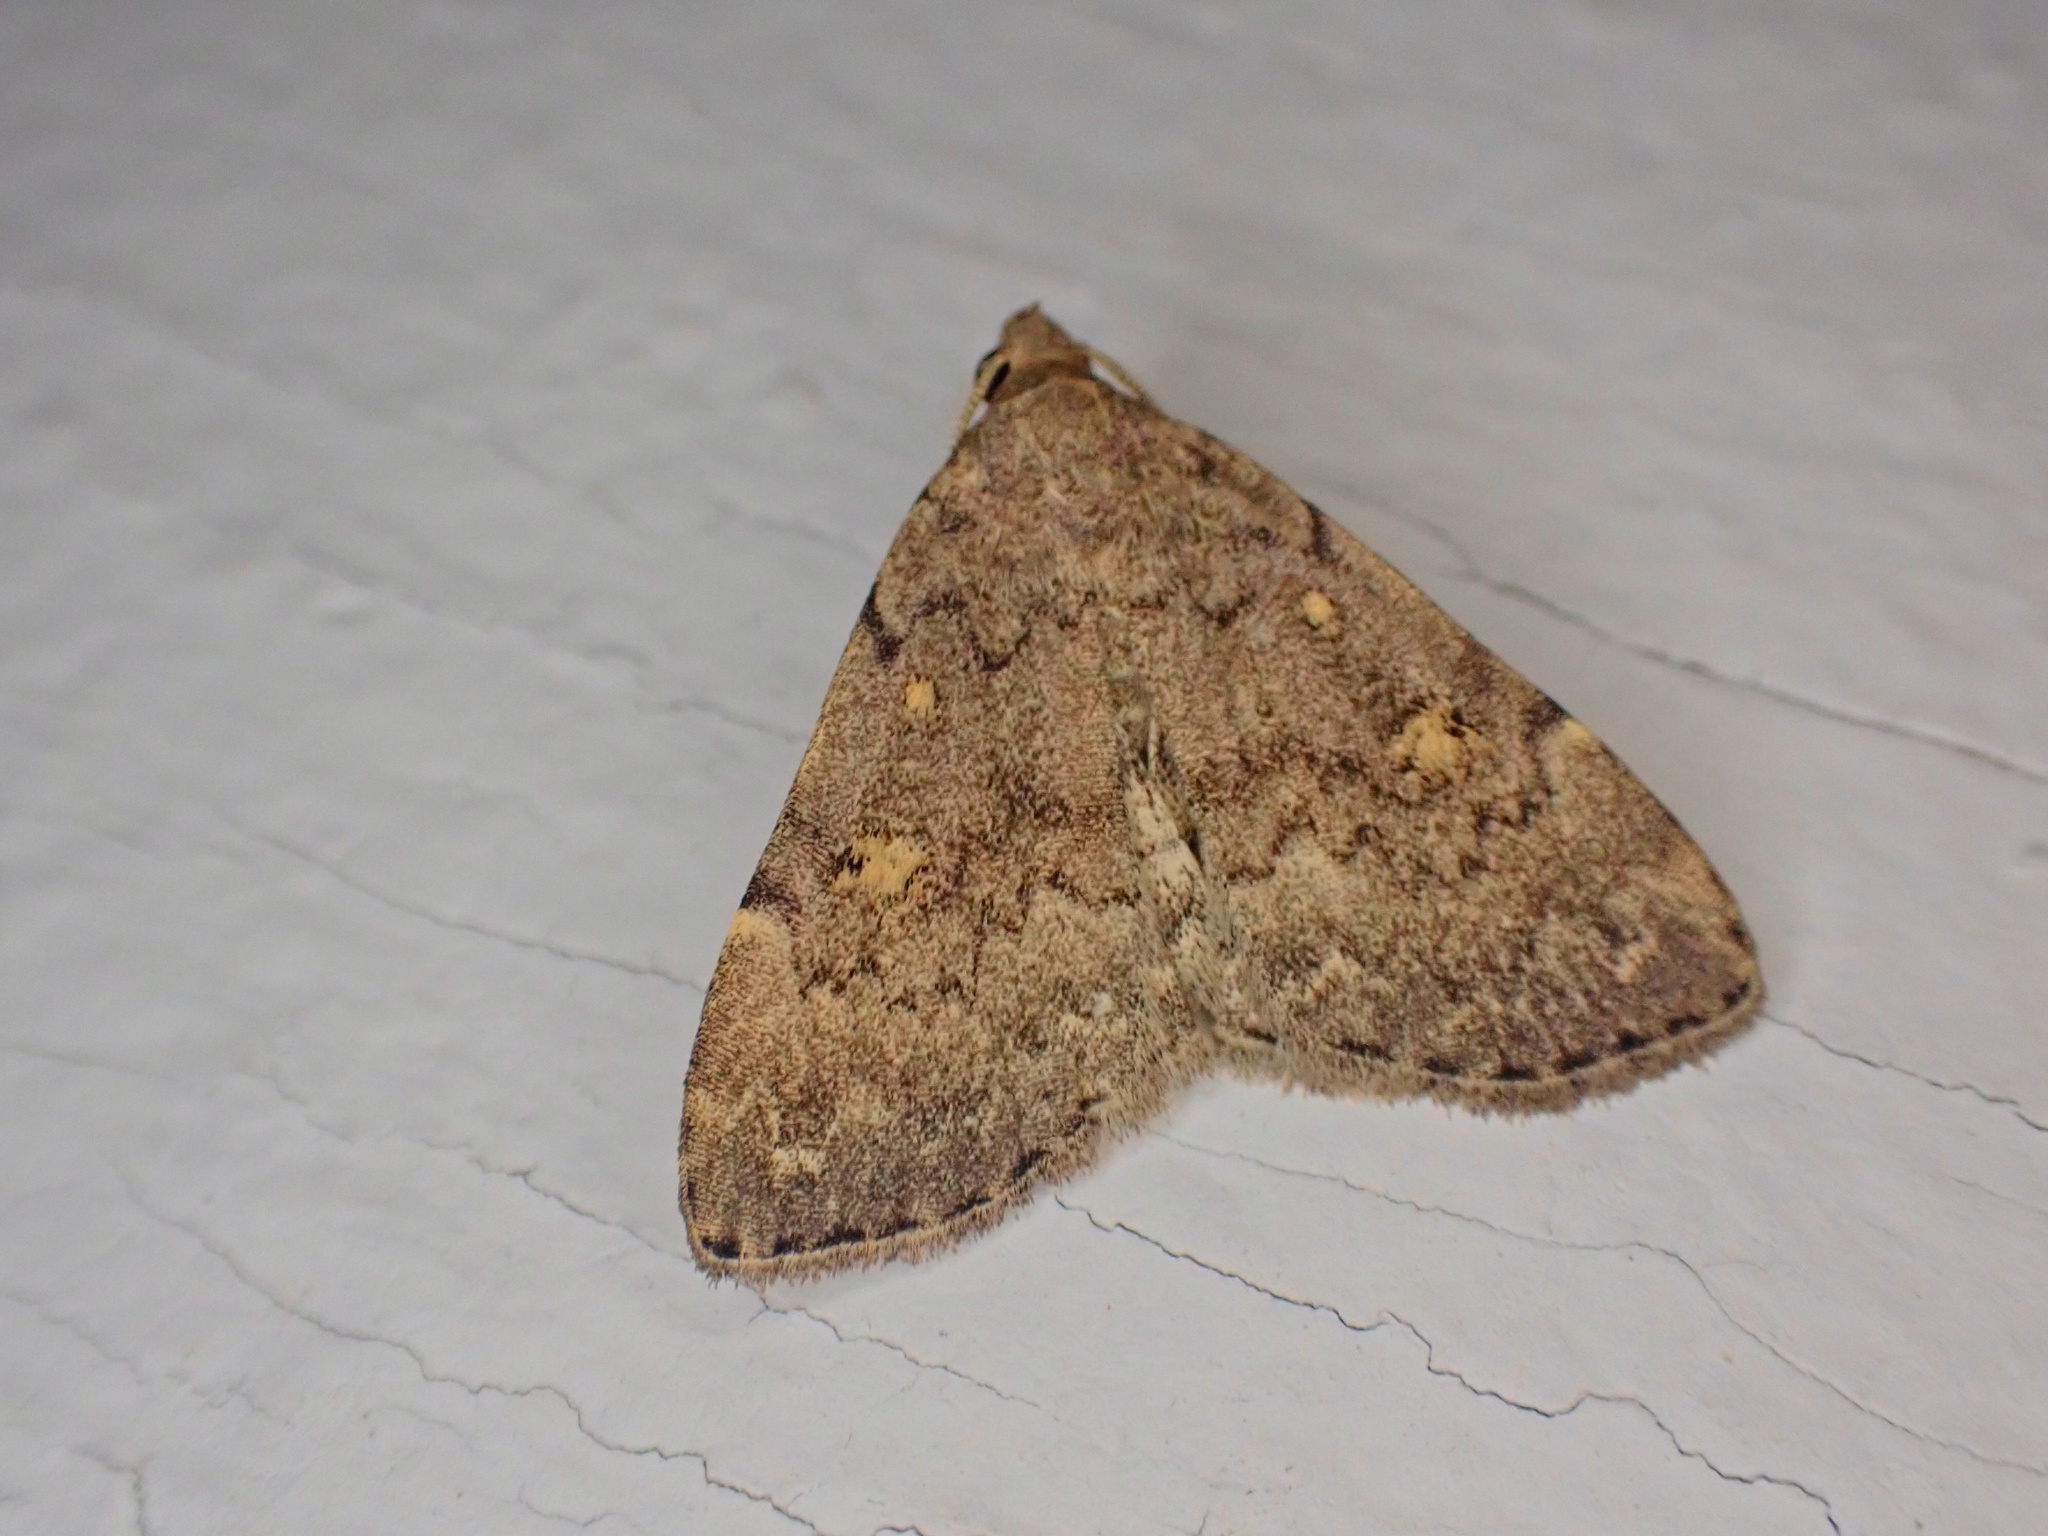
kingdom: Animalia
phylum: Arthropoda
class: Insecta
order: Lepidoptera
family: Erebidae
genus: Idia
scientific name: Idia aemula
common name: Common idia moth
